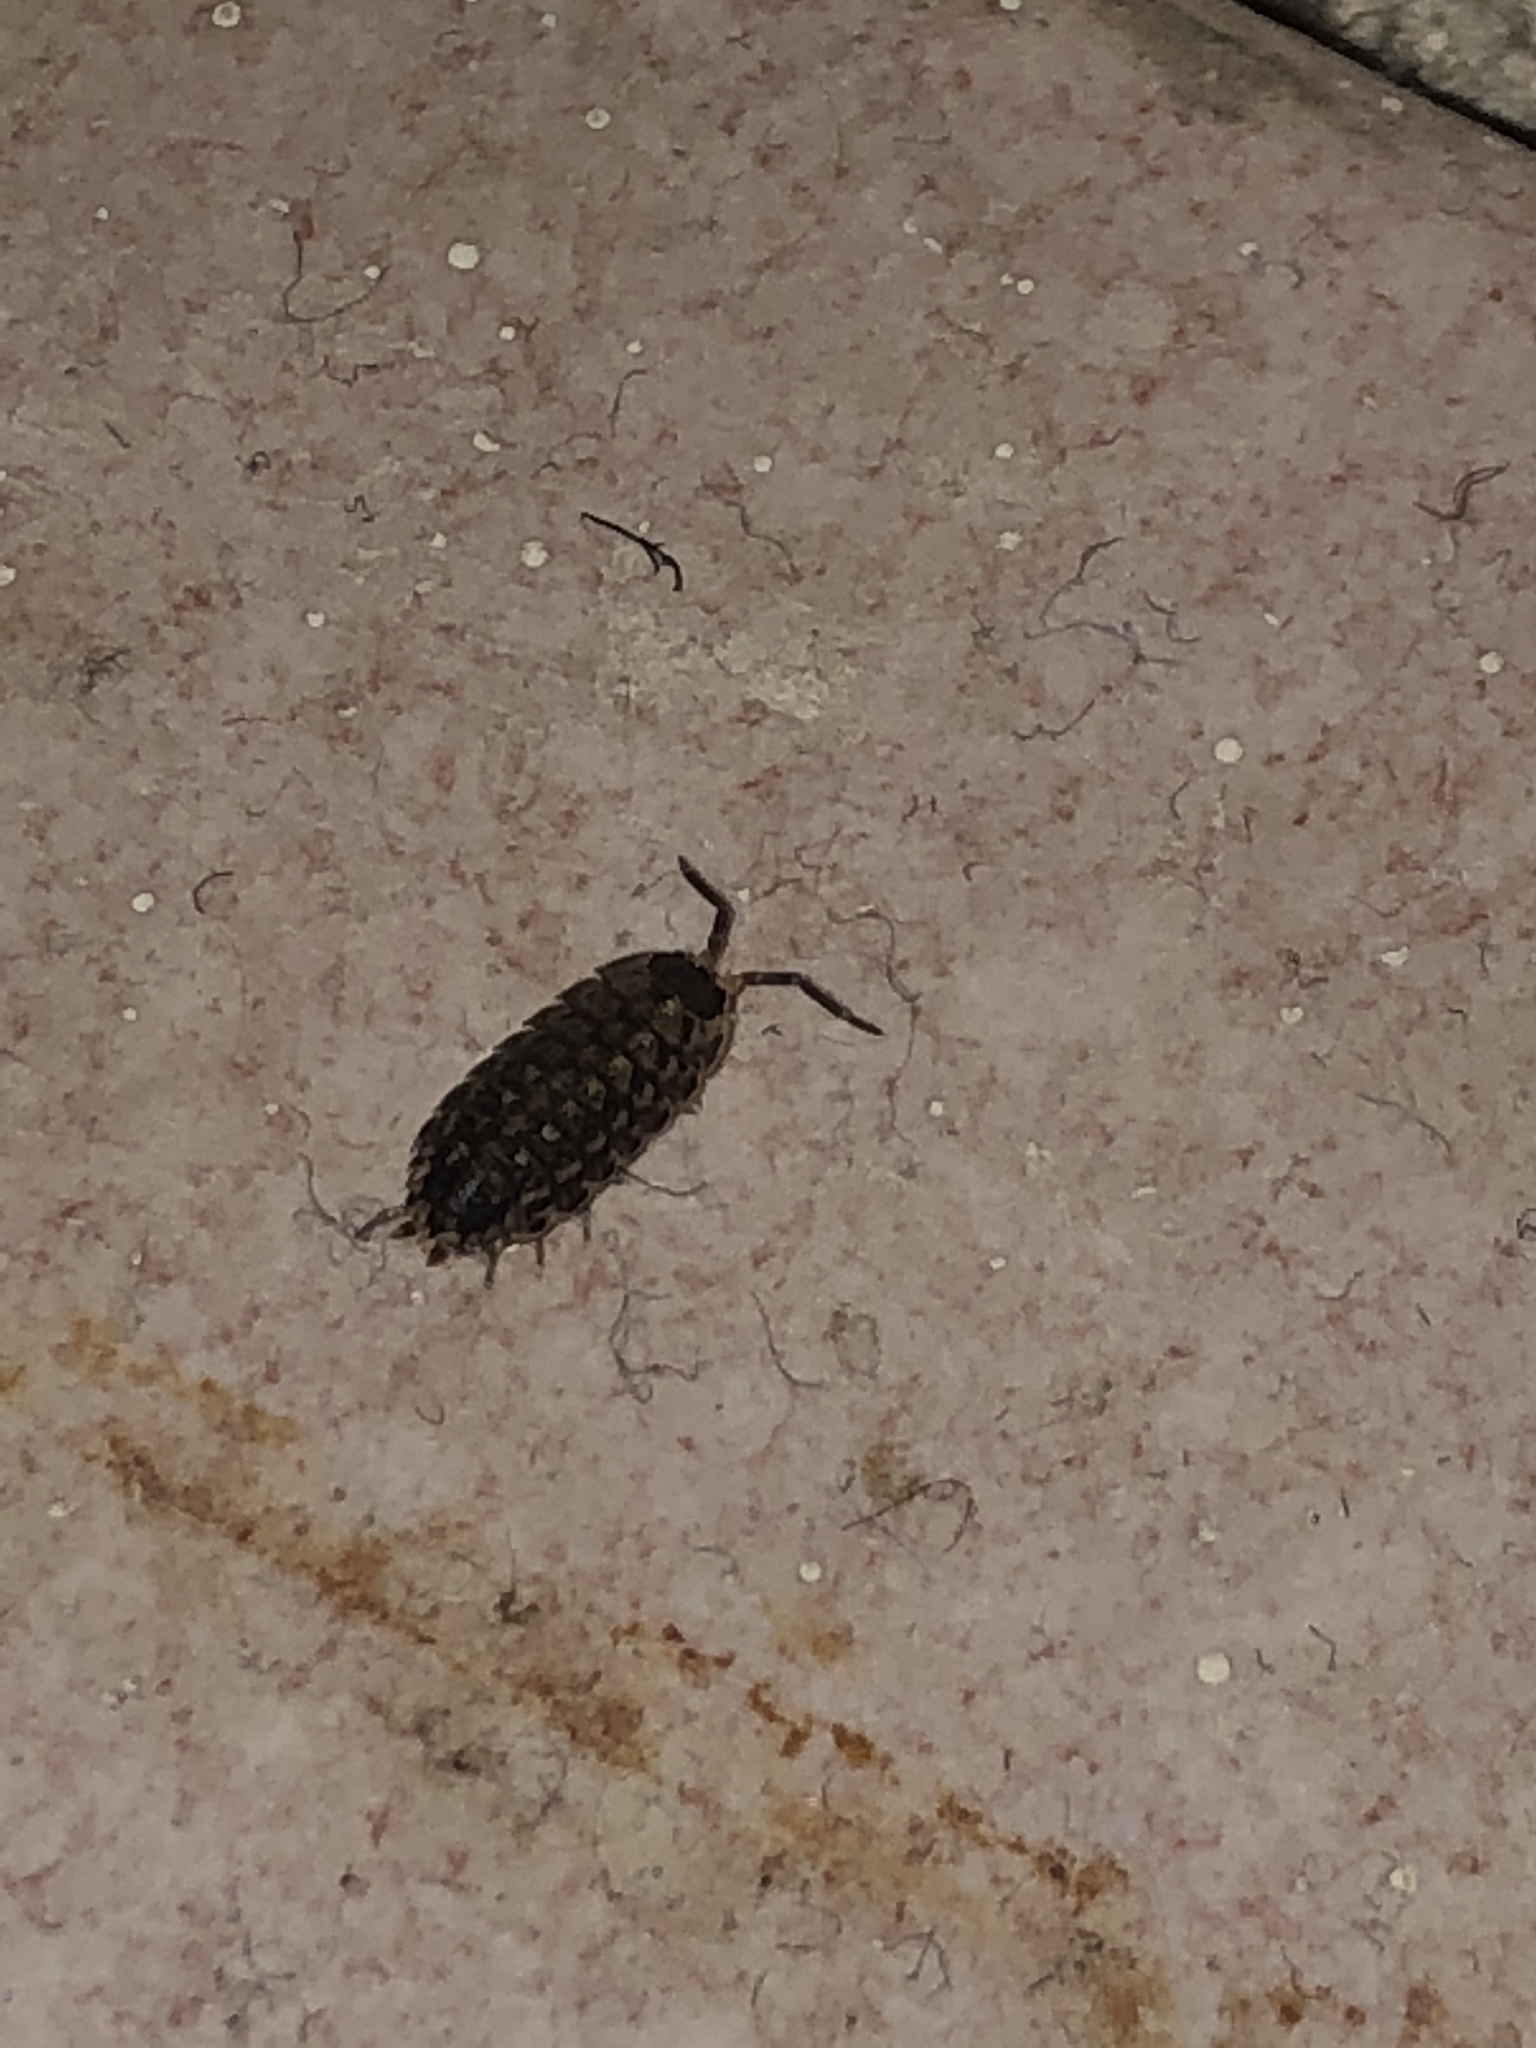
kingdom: Animalia
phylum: Arthropoda
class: Malacostraca
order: Isopoda
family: Porcellionidae
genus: Porcellio
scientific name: Porcellio spinicornis
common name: Painted woodlouse
